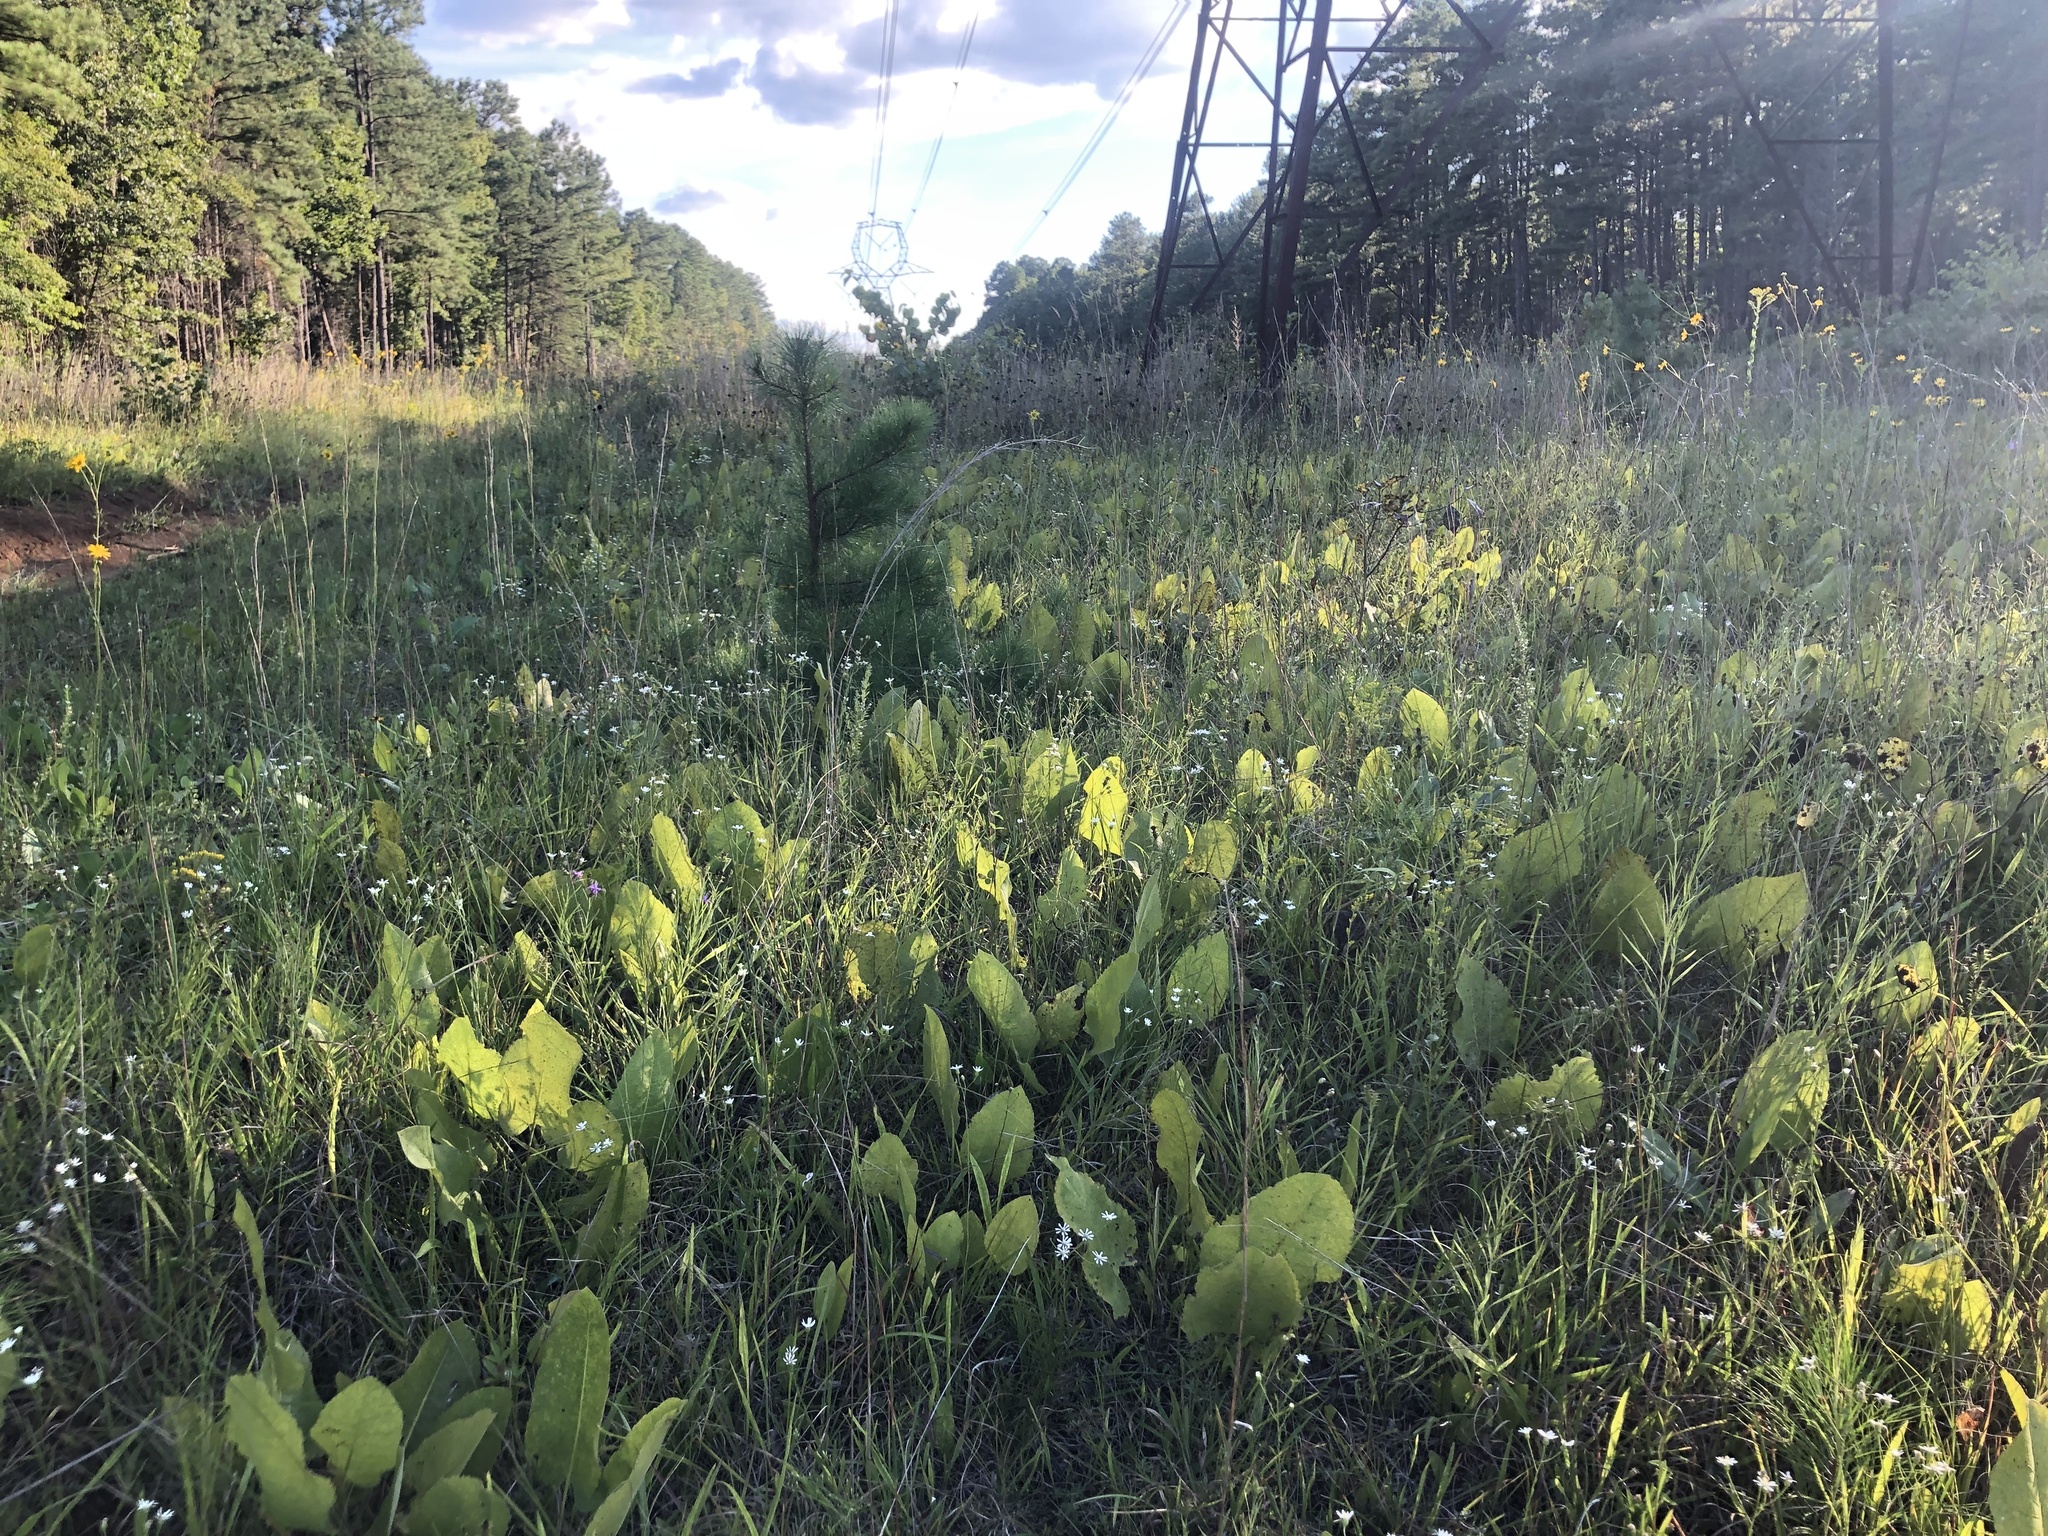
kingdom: Plantae
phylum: Tracheophyta
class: Magnoliopsida
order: Asterales
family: Asteraceae
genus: Silphium
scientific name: Silphium terebinthinaceum
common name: Basal-leaf rosinweed
